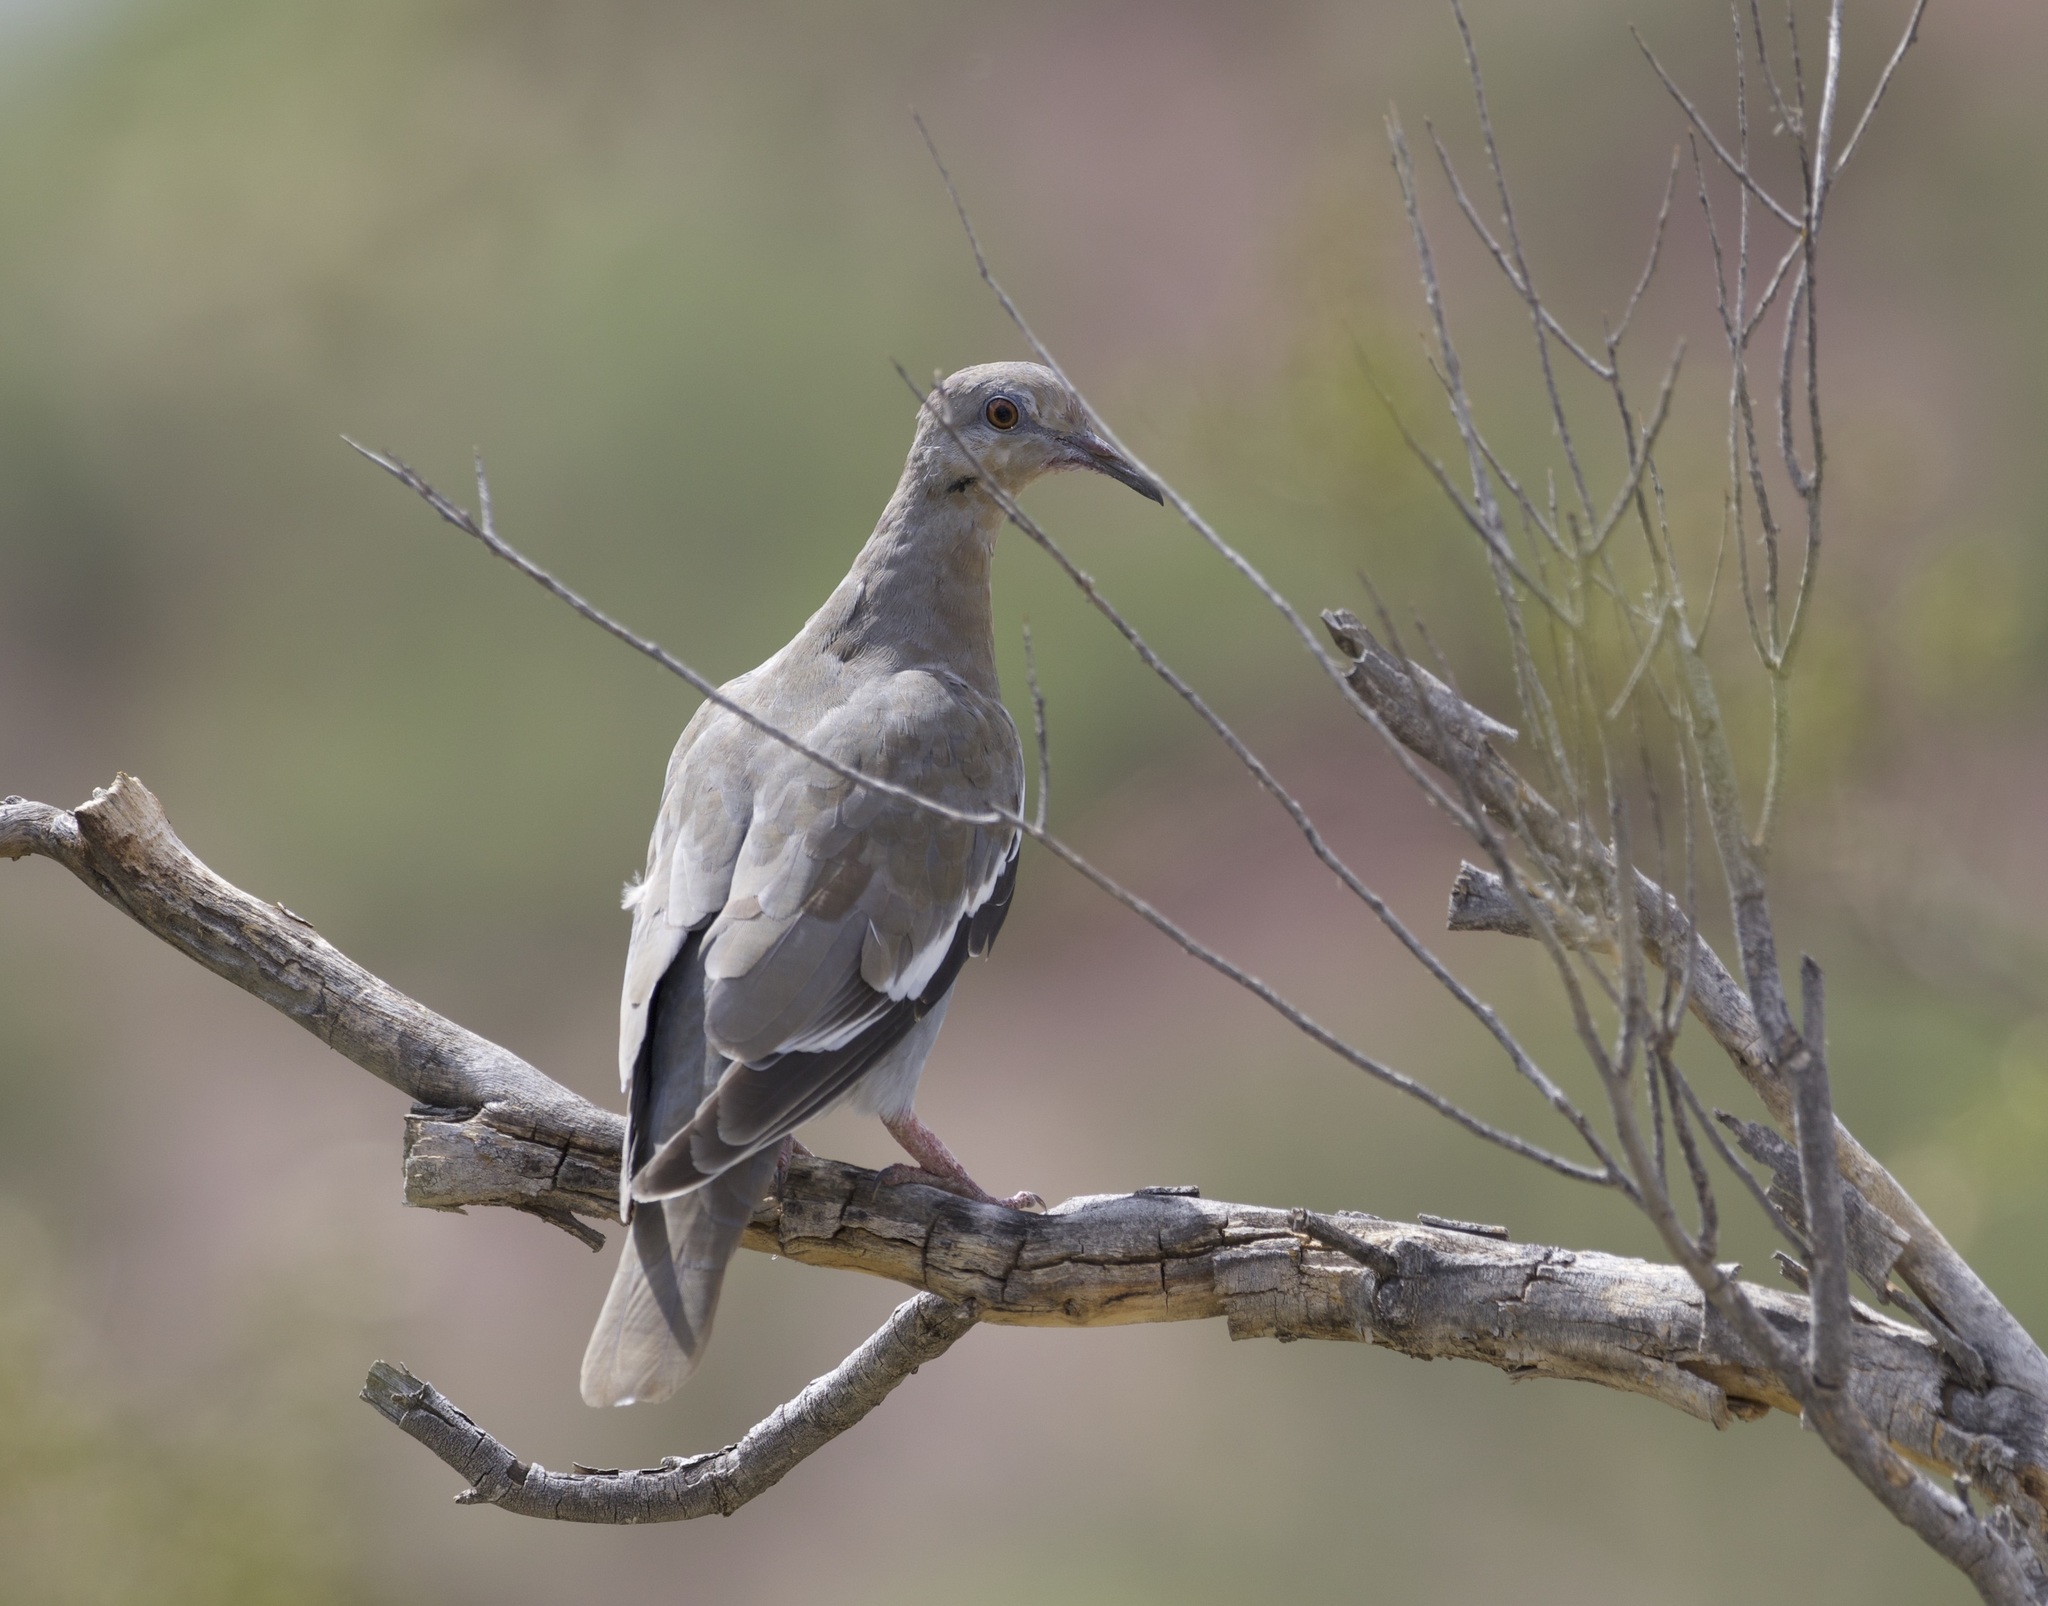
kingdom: Animalia
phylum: Chordata
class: Aves
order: Columbiformes
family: Columbidae
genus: Zenaida
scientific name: Zenaida asiatica
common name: White-winged dove
